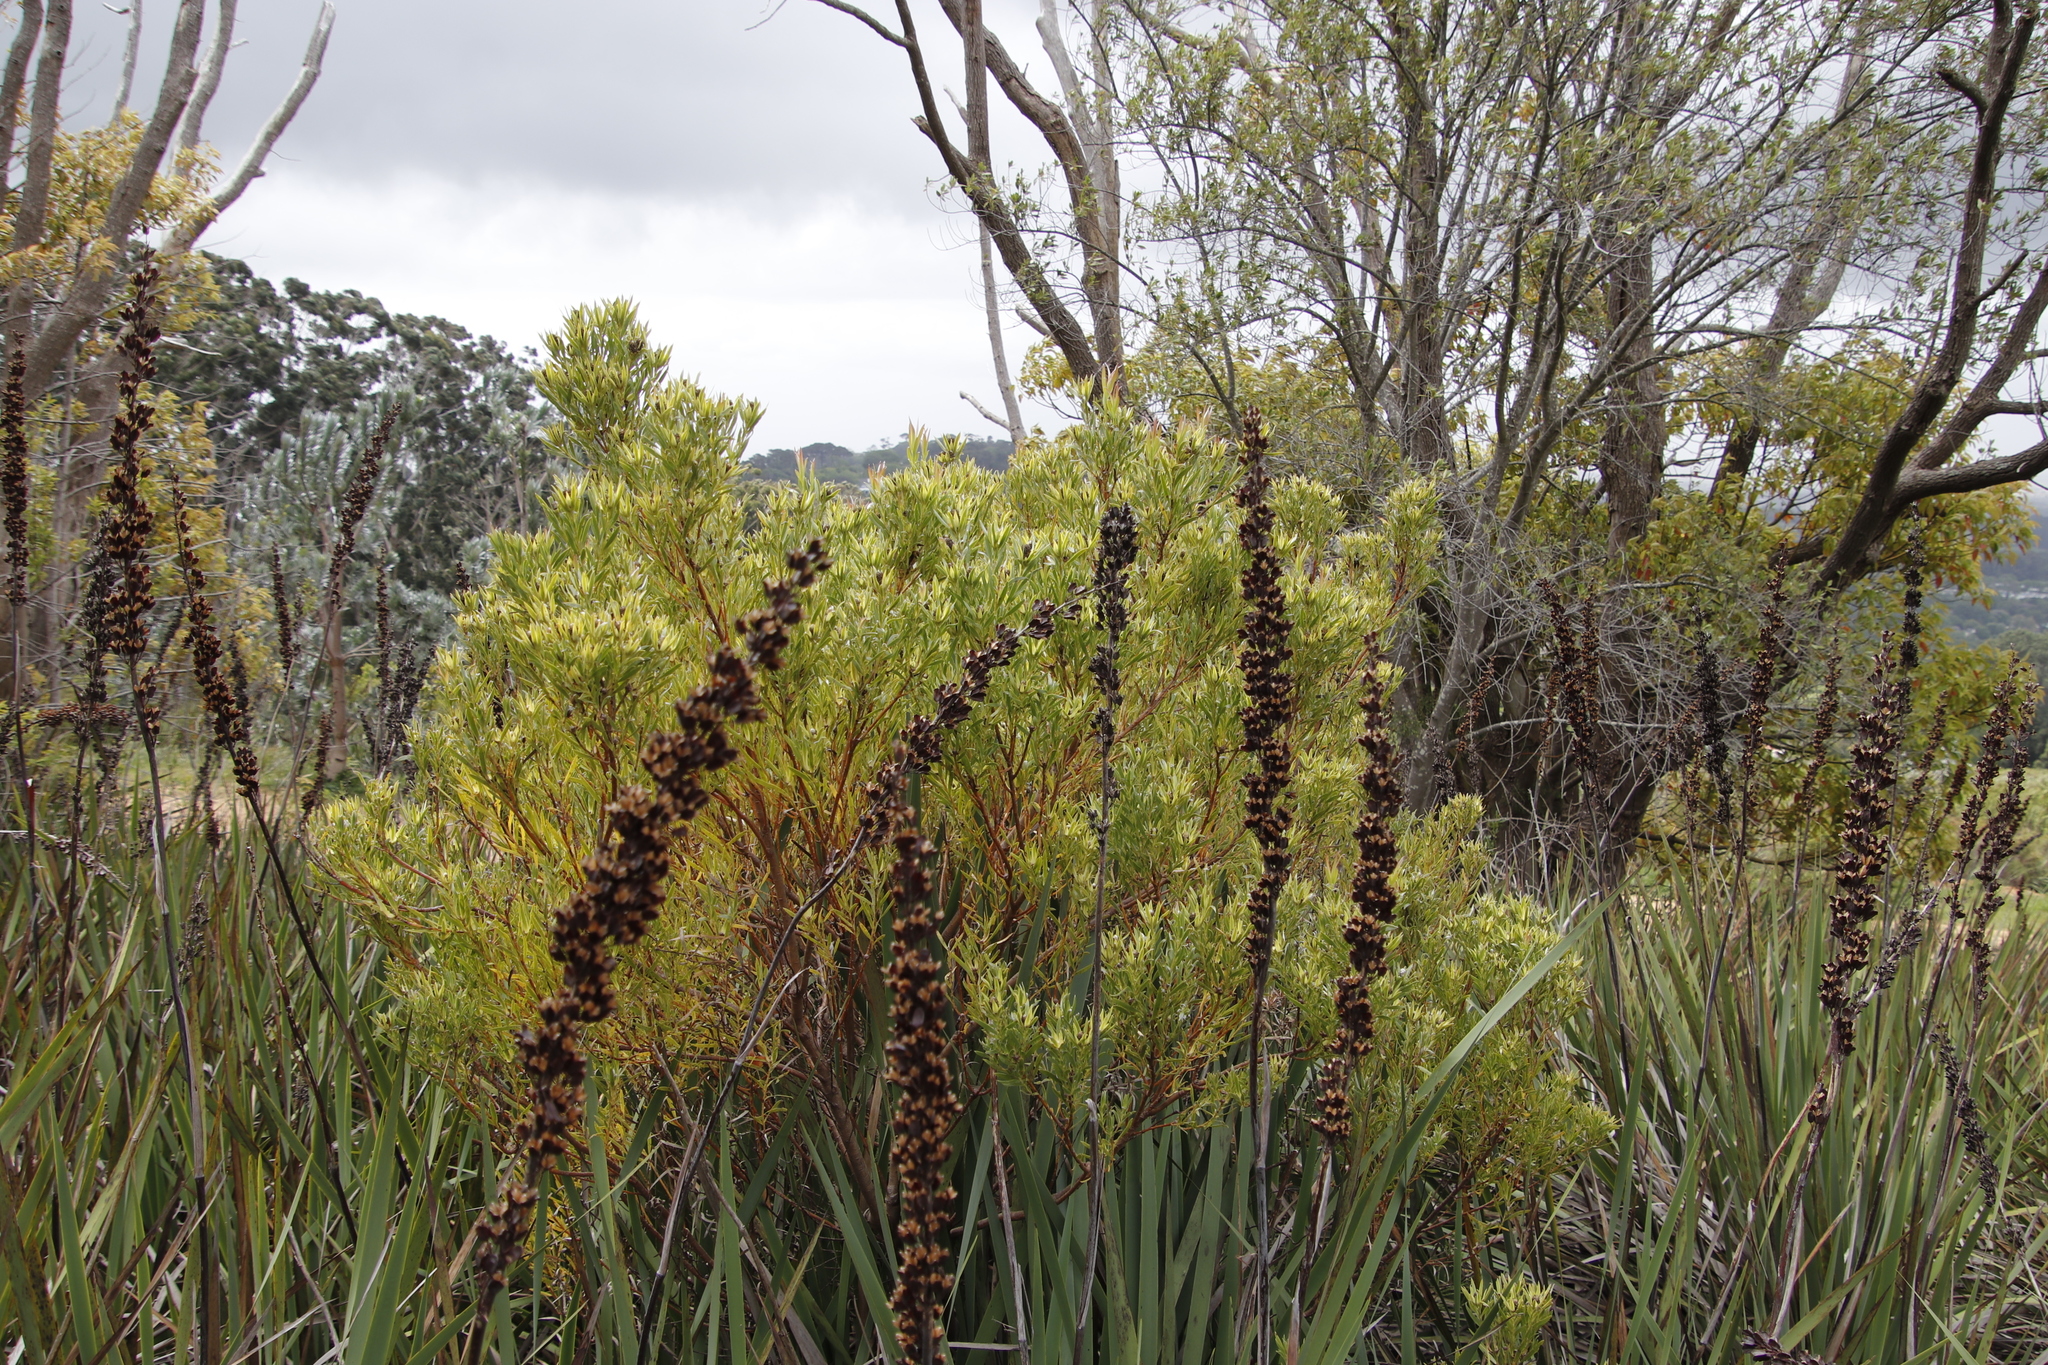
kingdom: Plantae
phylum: Tracheophyta
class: Magnoliopsida
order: Proteales
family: Proteaceae
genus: Leucadendron
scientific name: Leucadendron xanthoconus
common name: Sickle-leaf conebush
